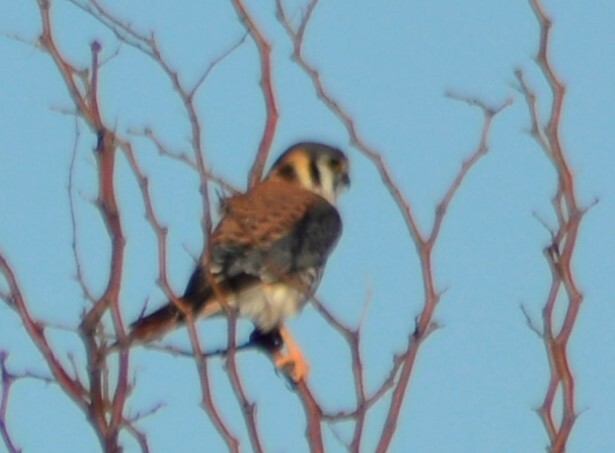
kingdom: Animalia
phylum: Chordata
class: Aves
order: Falconiformes
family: Falconidae
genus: Falco
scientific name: Falco sparverius
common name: American kestrel
